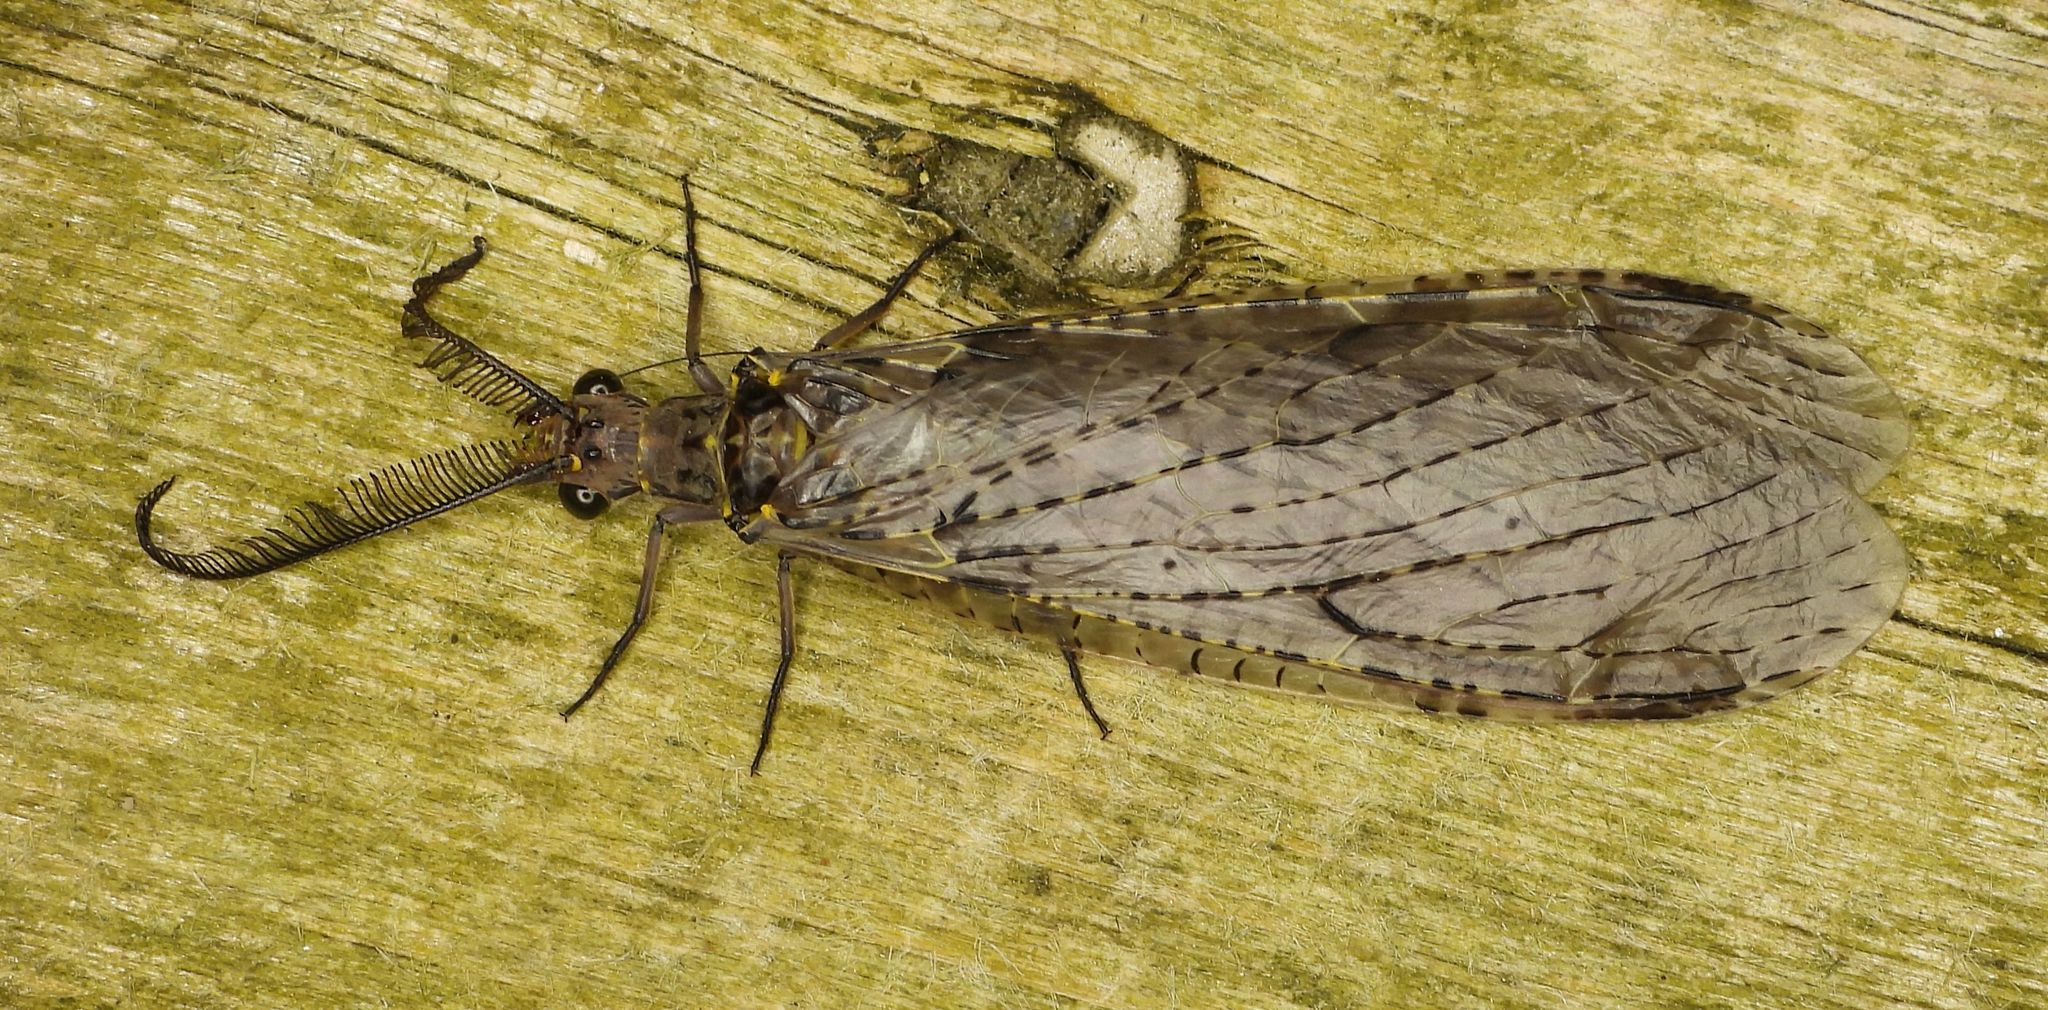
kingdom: Animalia
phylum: Arthropoda
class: Insecta
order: Megaloptera
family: Corydalidae
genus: Chauliodes
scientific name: Chauliodes rastricornis
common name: Spring fishfly
